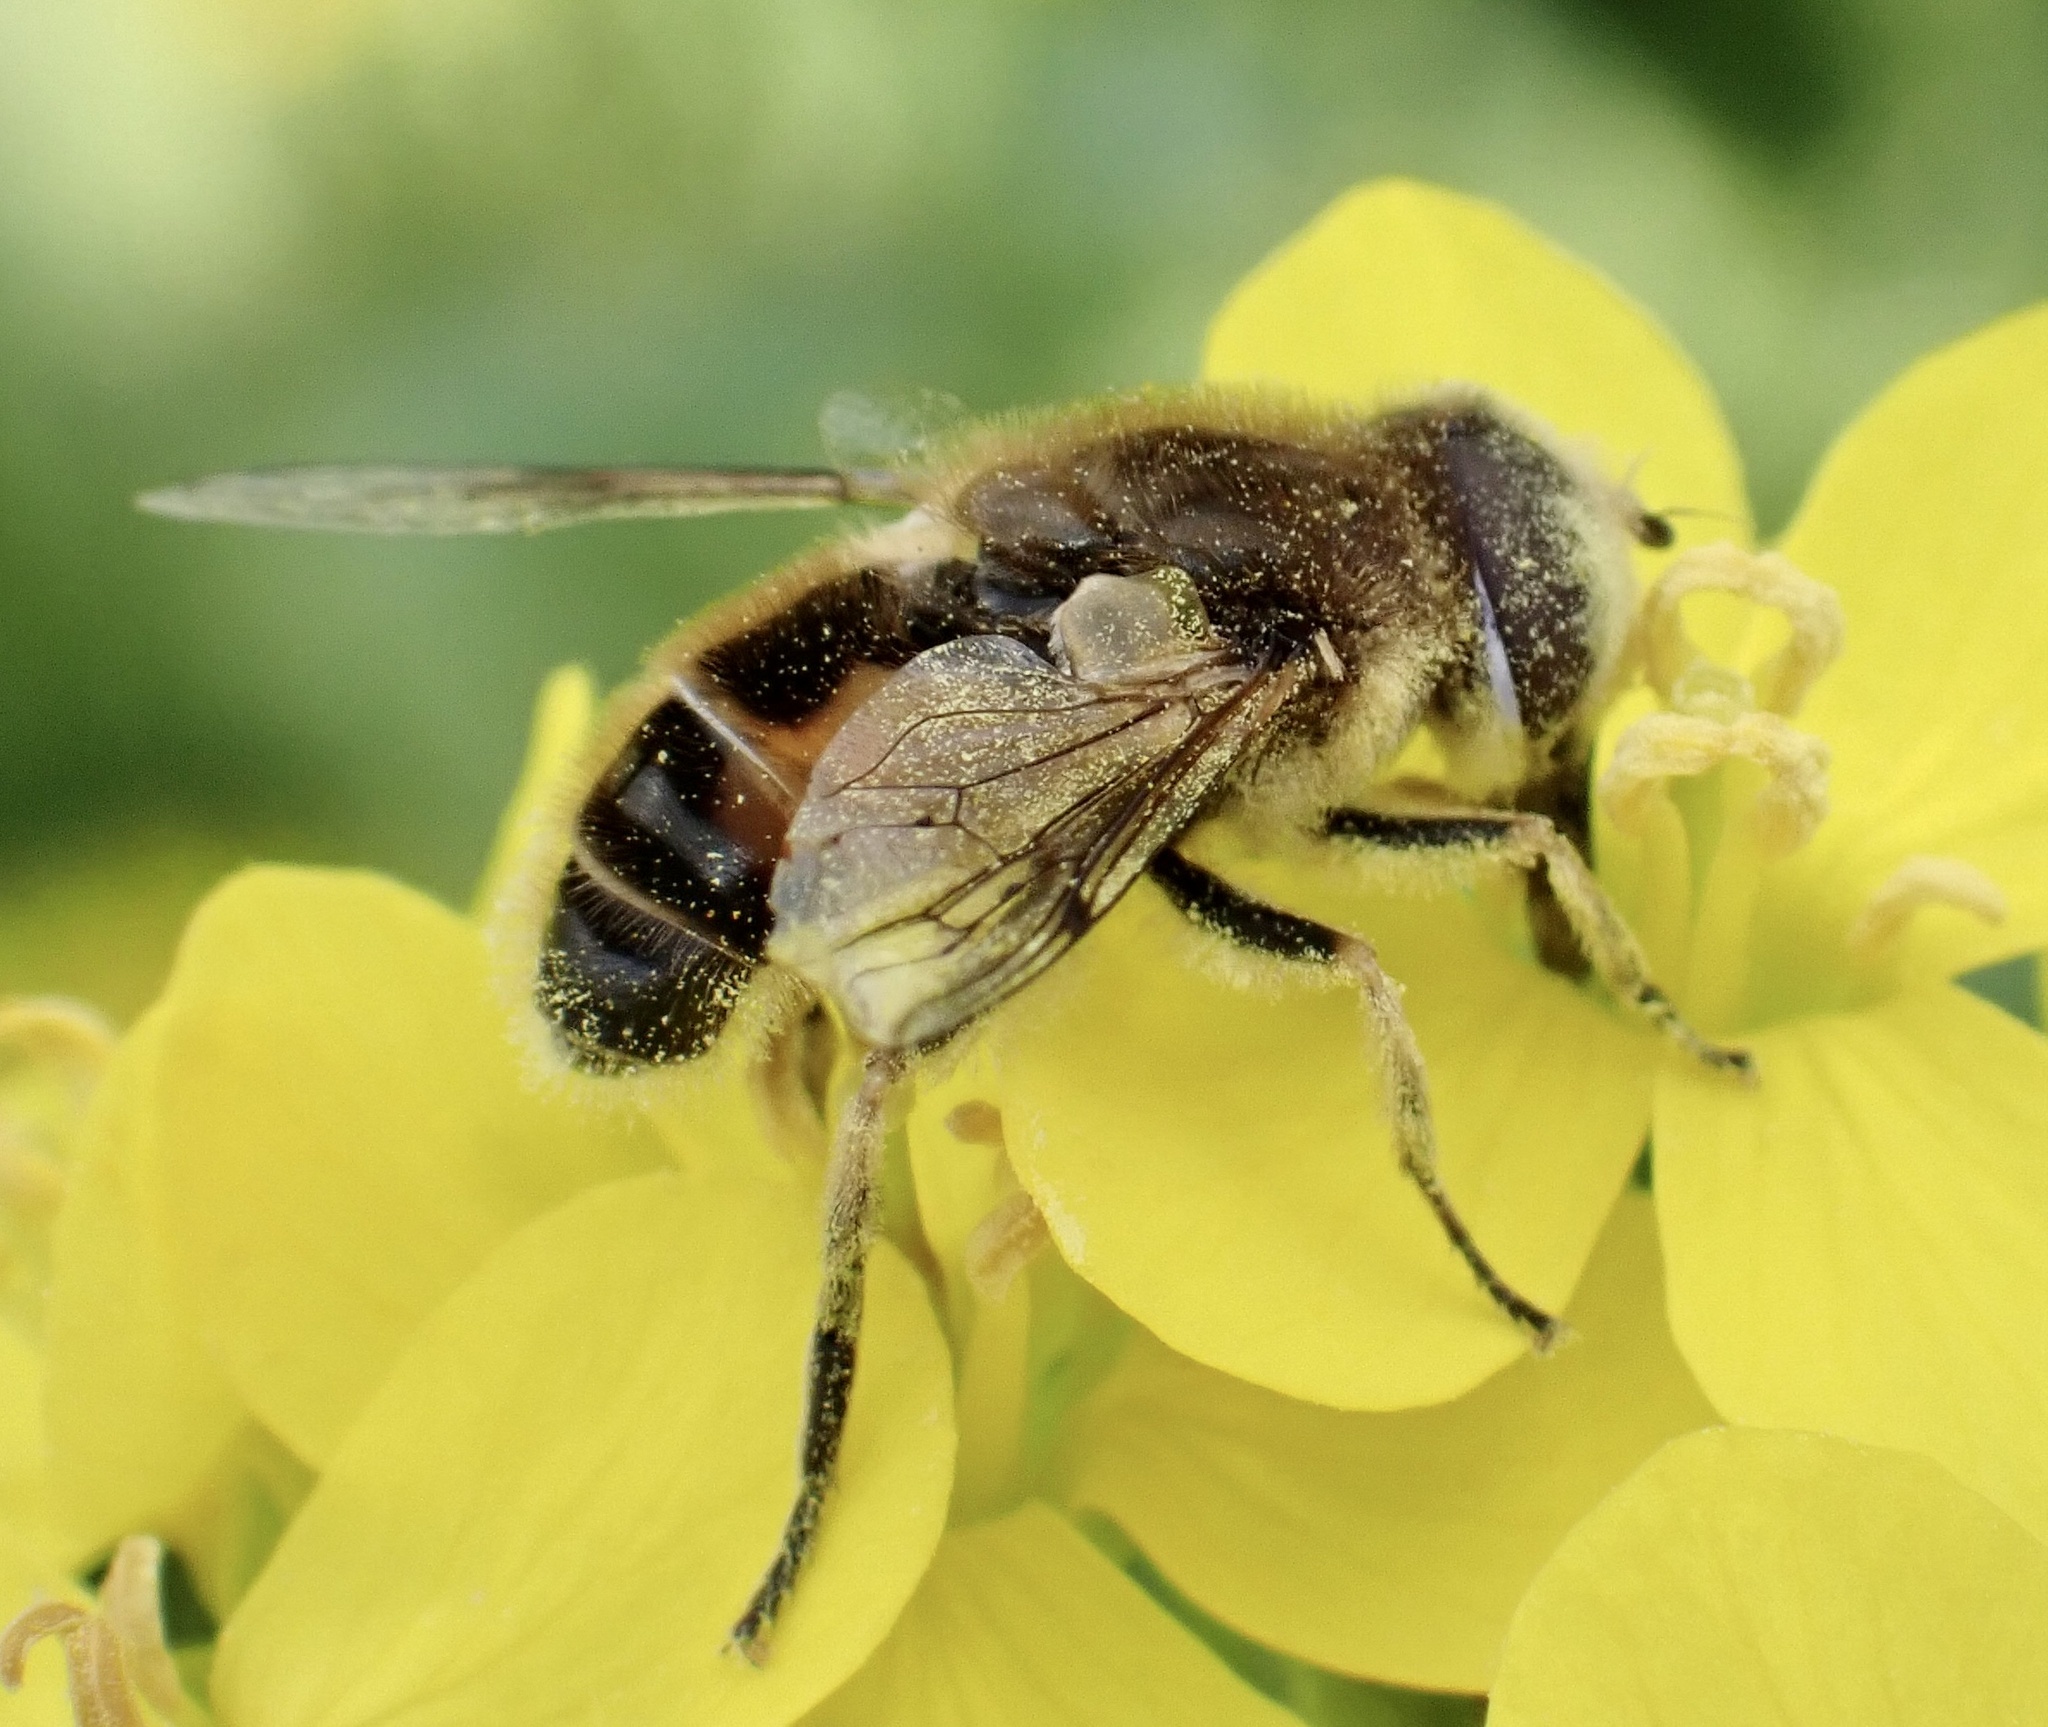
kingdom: Animalia
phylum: Arthropoda
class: Insecta
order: Diptera
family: Syrphidae
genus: Eristalis
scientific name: Eristalis arbustorum
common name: Hover fly
